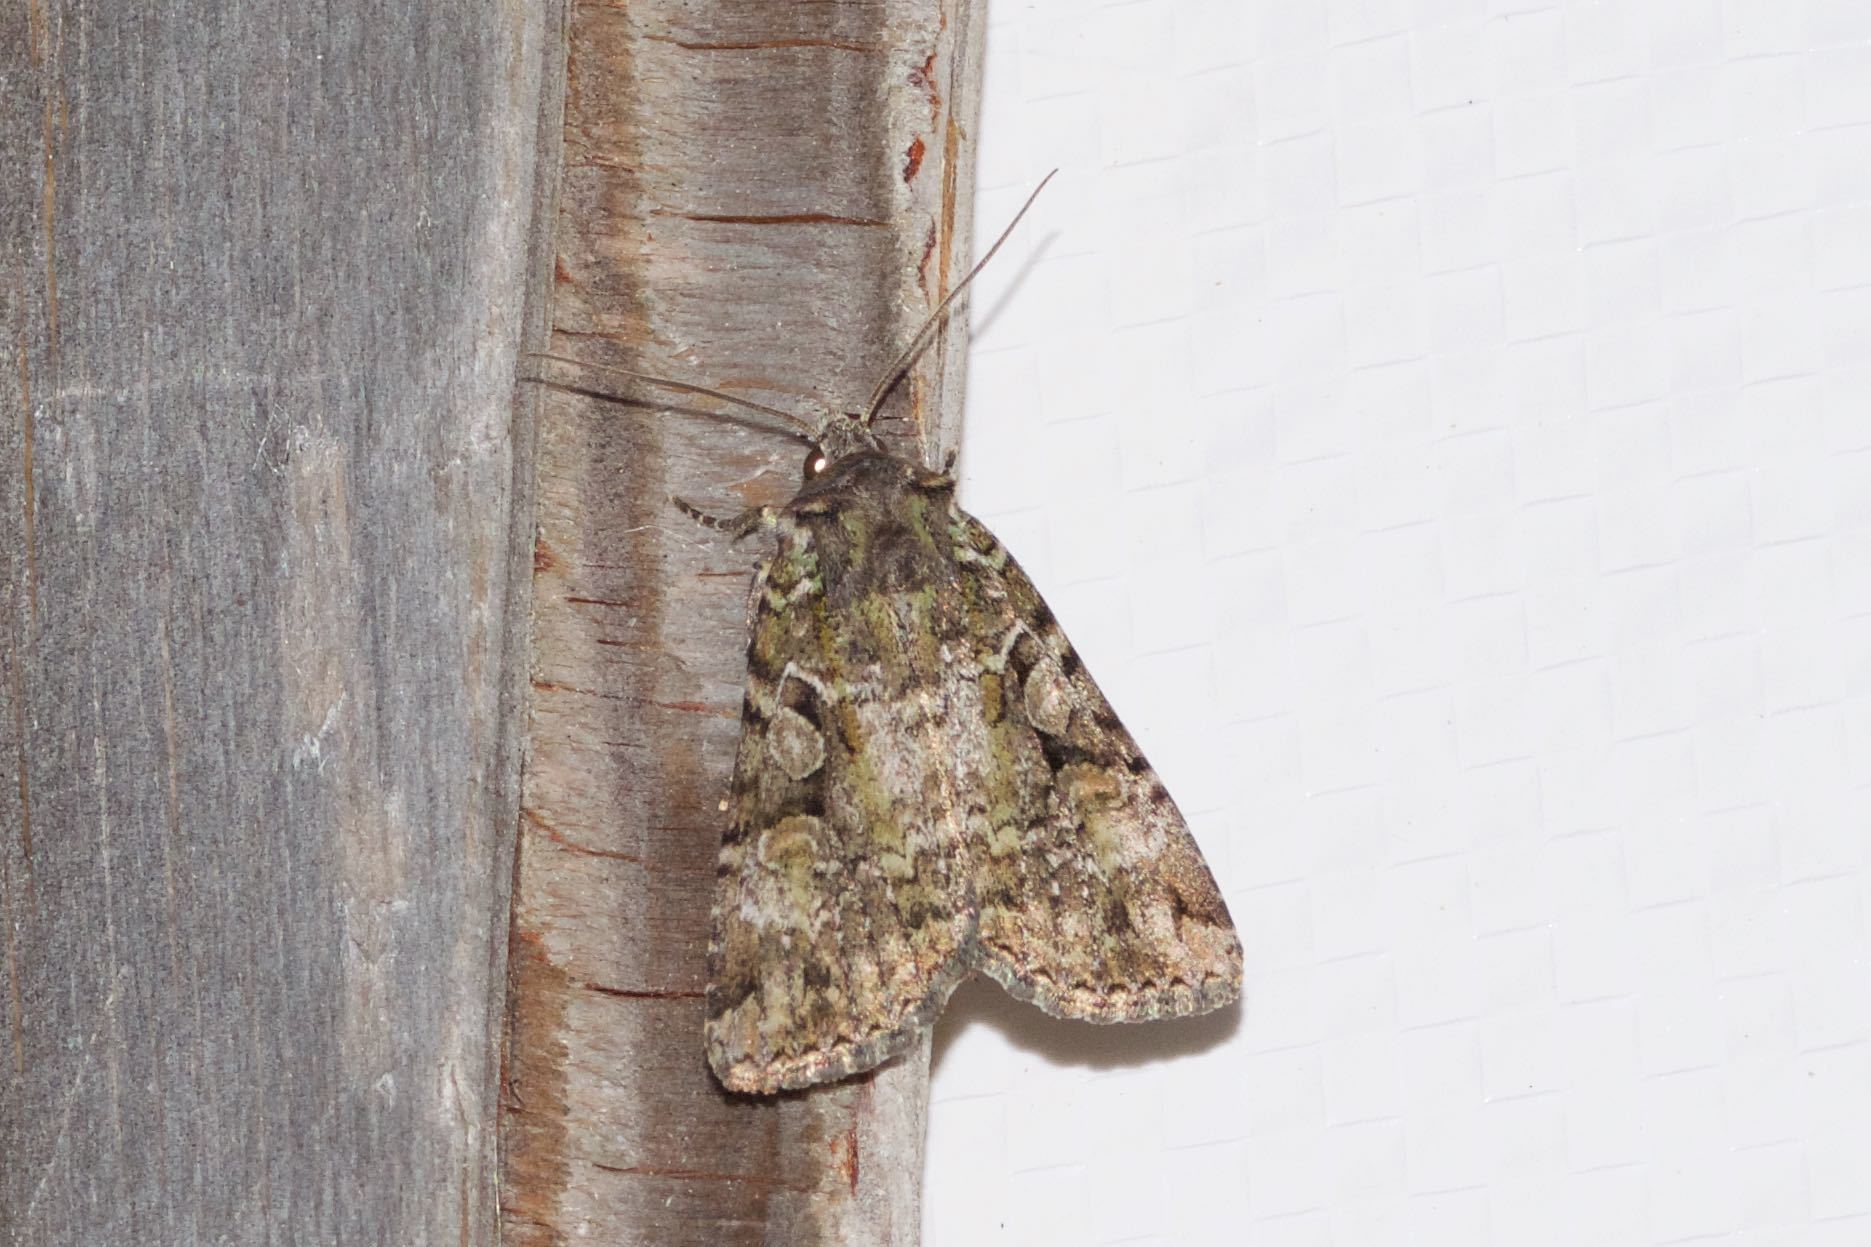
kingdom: Animalia
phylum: Arthropoda
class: Insecta
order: Lepidoptera
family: Noctuidae
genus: Anaplectoides
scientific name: Anaplectoides prasina
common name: Green arches
